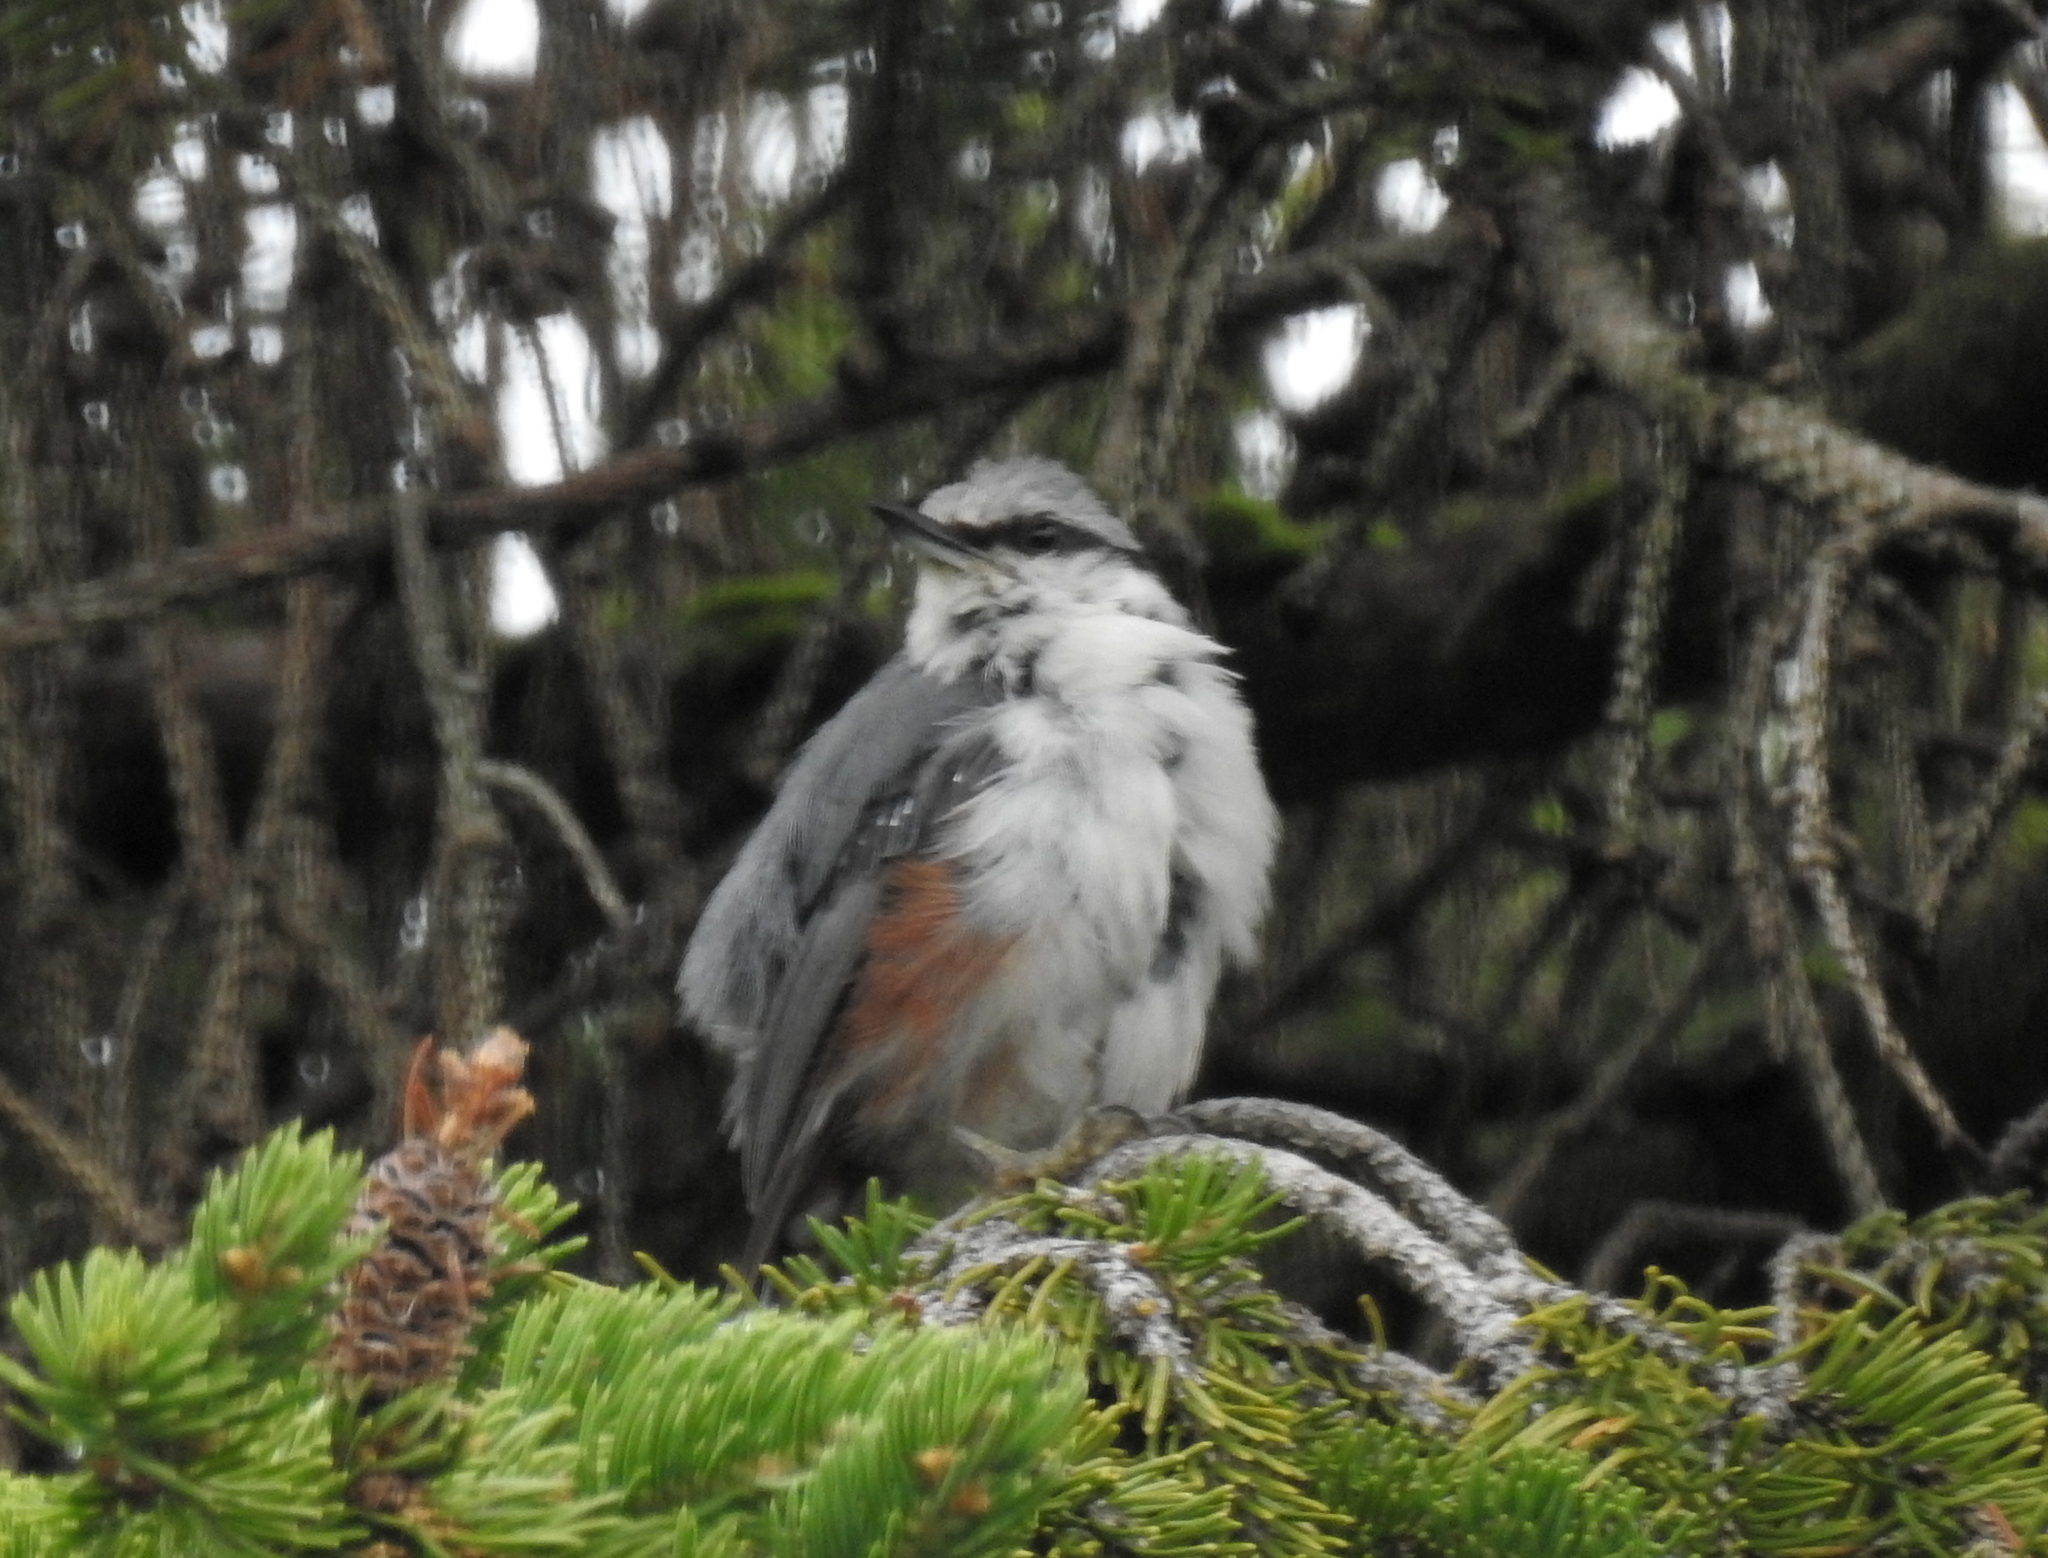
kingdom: Animalia
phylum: Chordata
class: Aves
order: Passeriformes
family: Sittidae
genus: Sitta
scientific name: Sitta europaea
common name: Eurasian nuthatch
